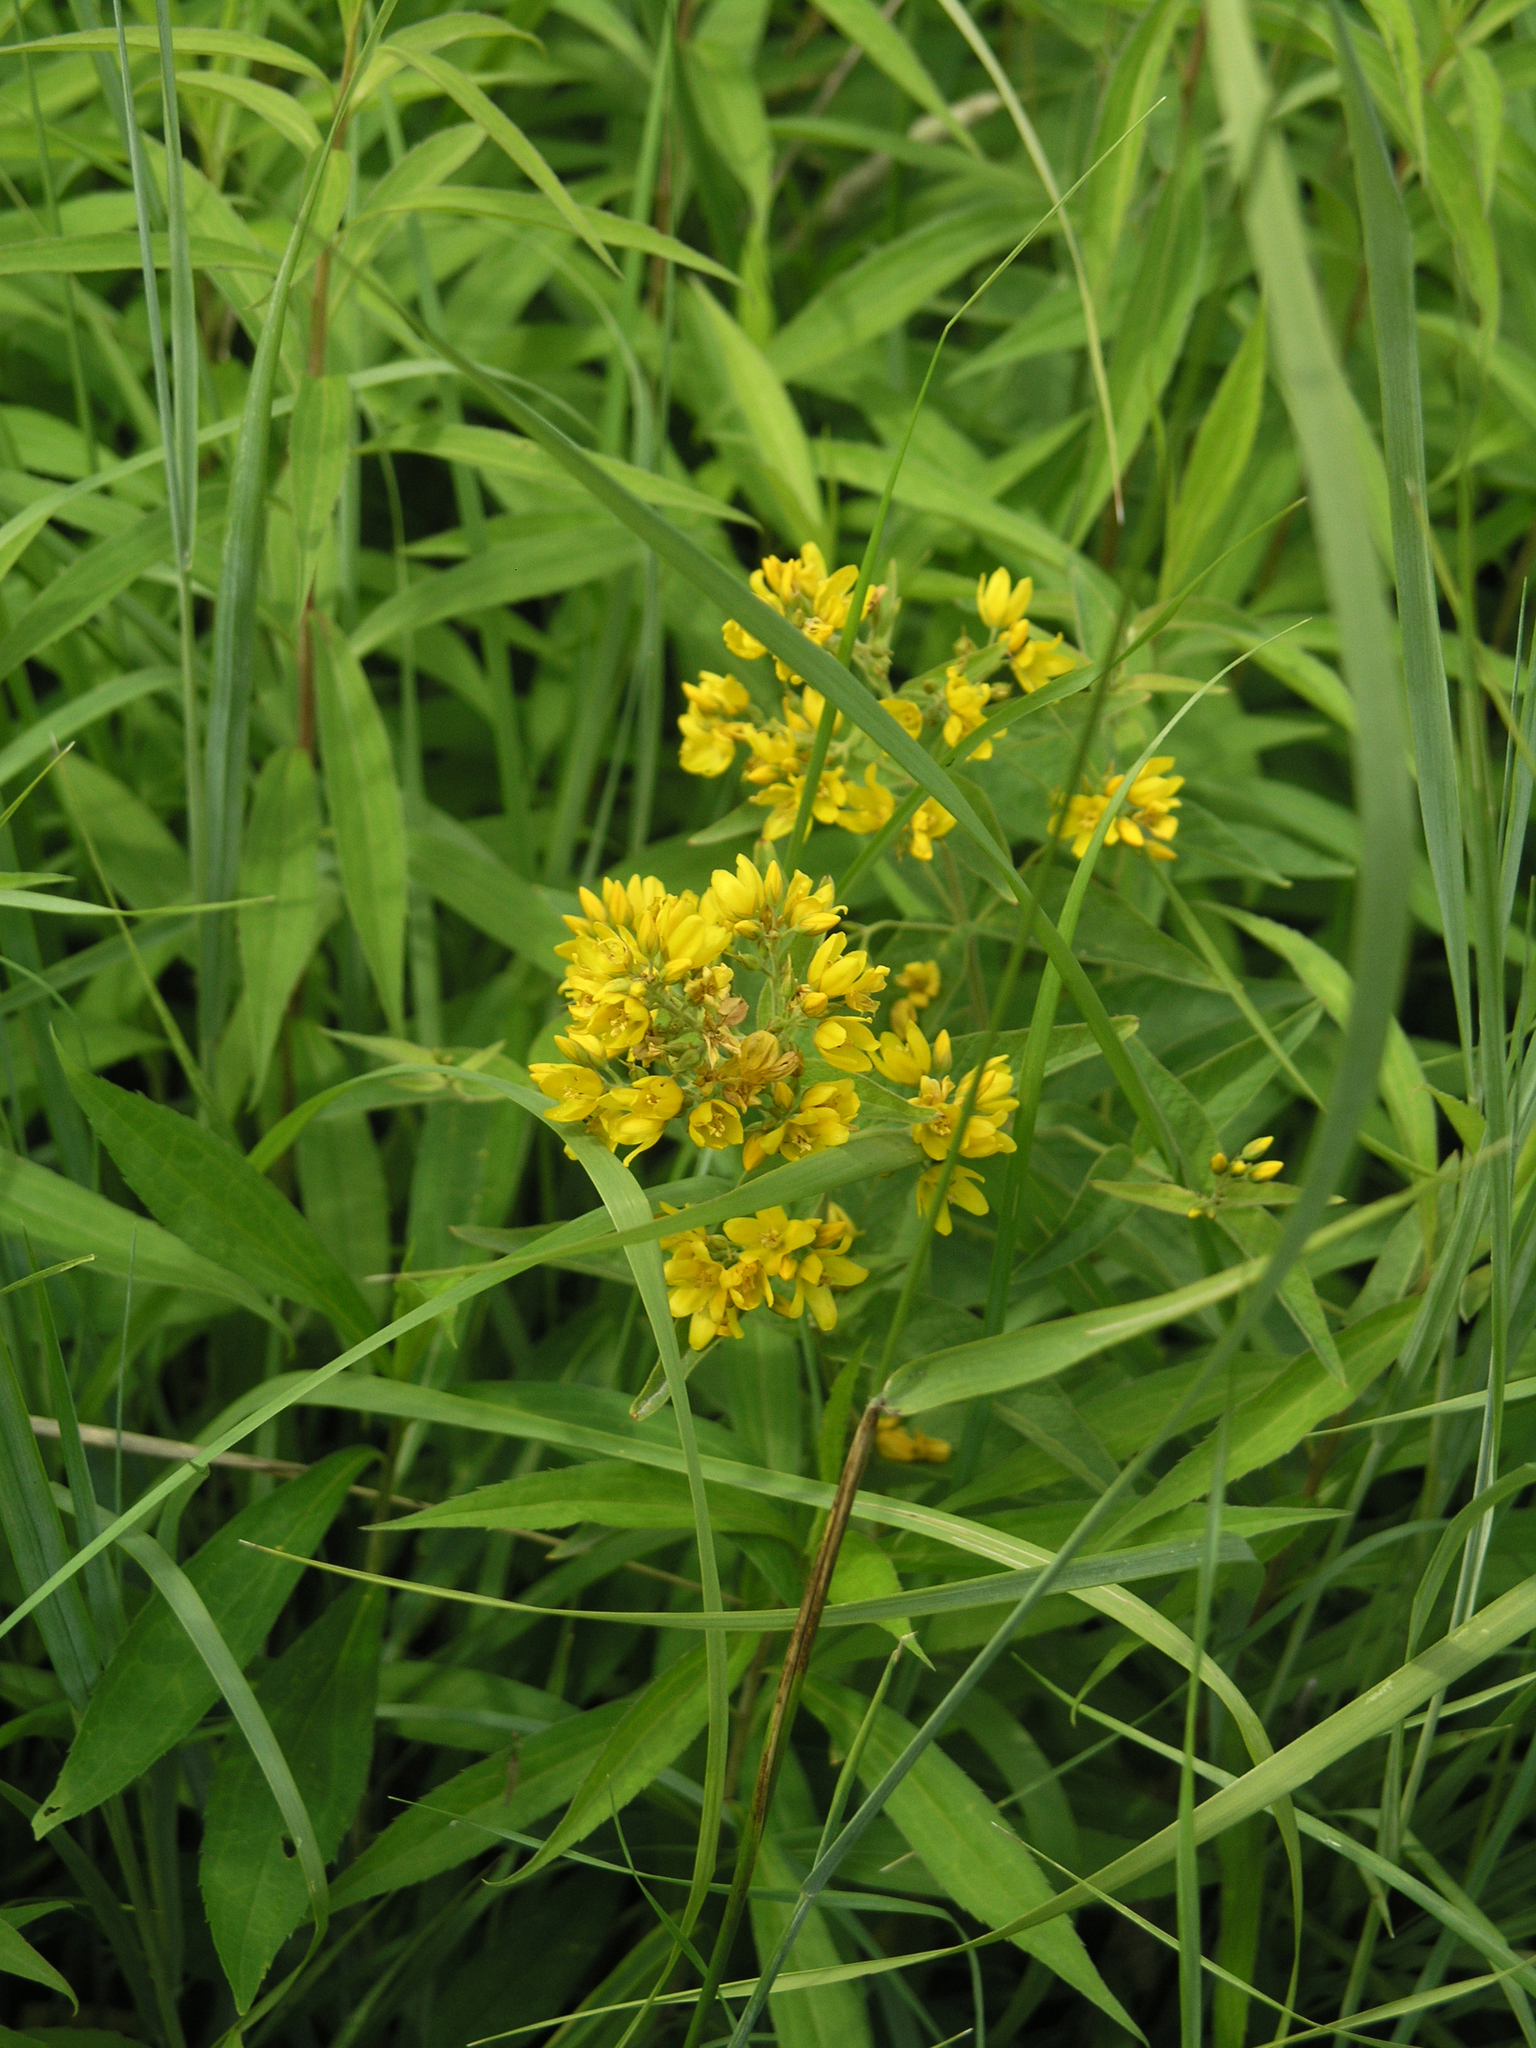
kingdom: Plantae
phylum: Tracheophyta
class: Magnoliopsida
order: Ericales
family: Primulaceae
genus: Lysimachia
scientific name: Lysimachia vulgaris
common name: Yellow loosestrife
